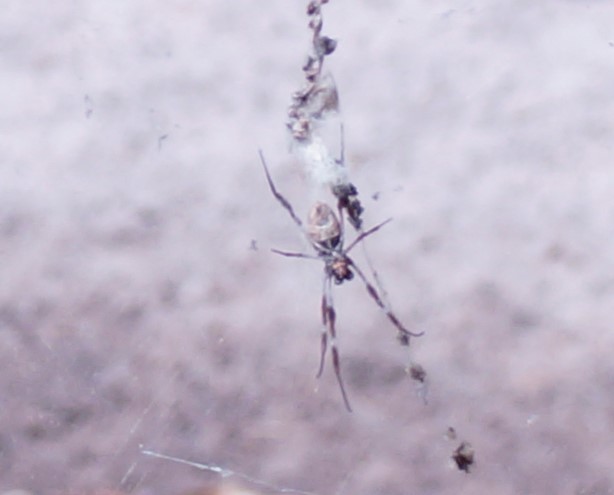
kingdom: Animalia
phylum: Arthropoda
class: Arachnida
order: Araneae
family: Araneidae
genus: Trichonephila
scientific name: Trichonephila edulis
